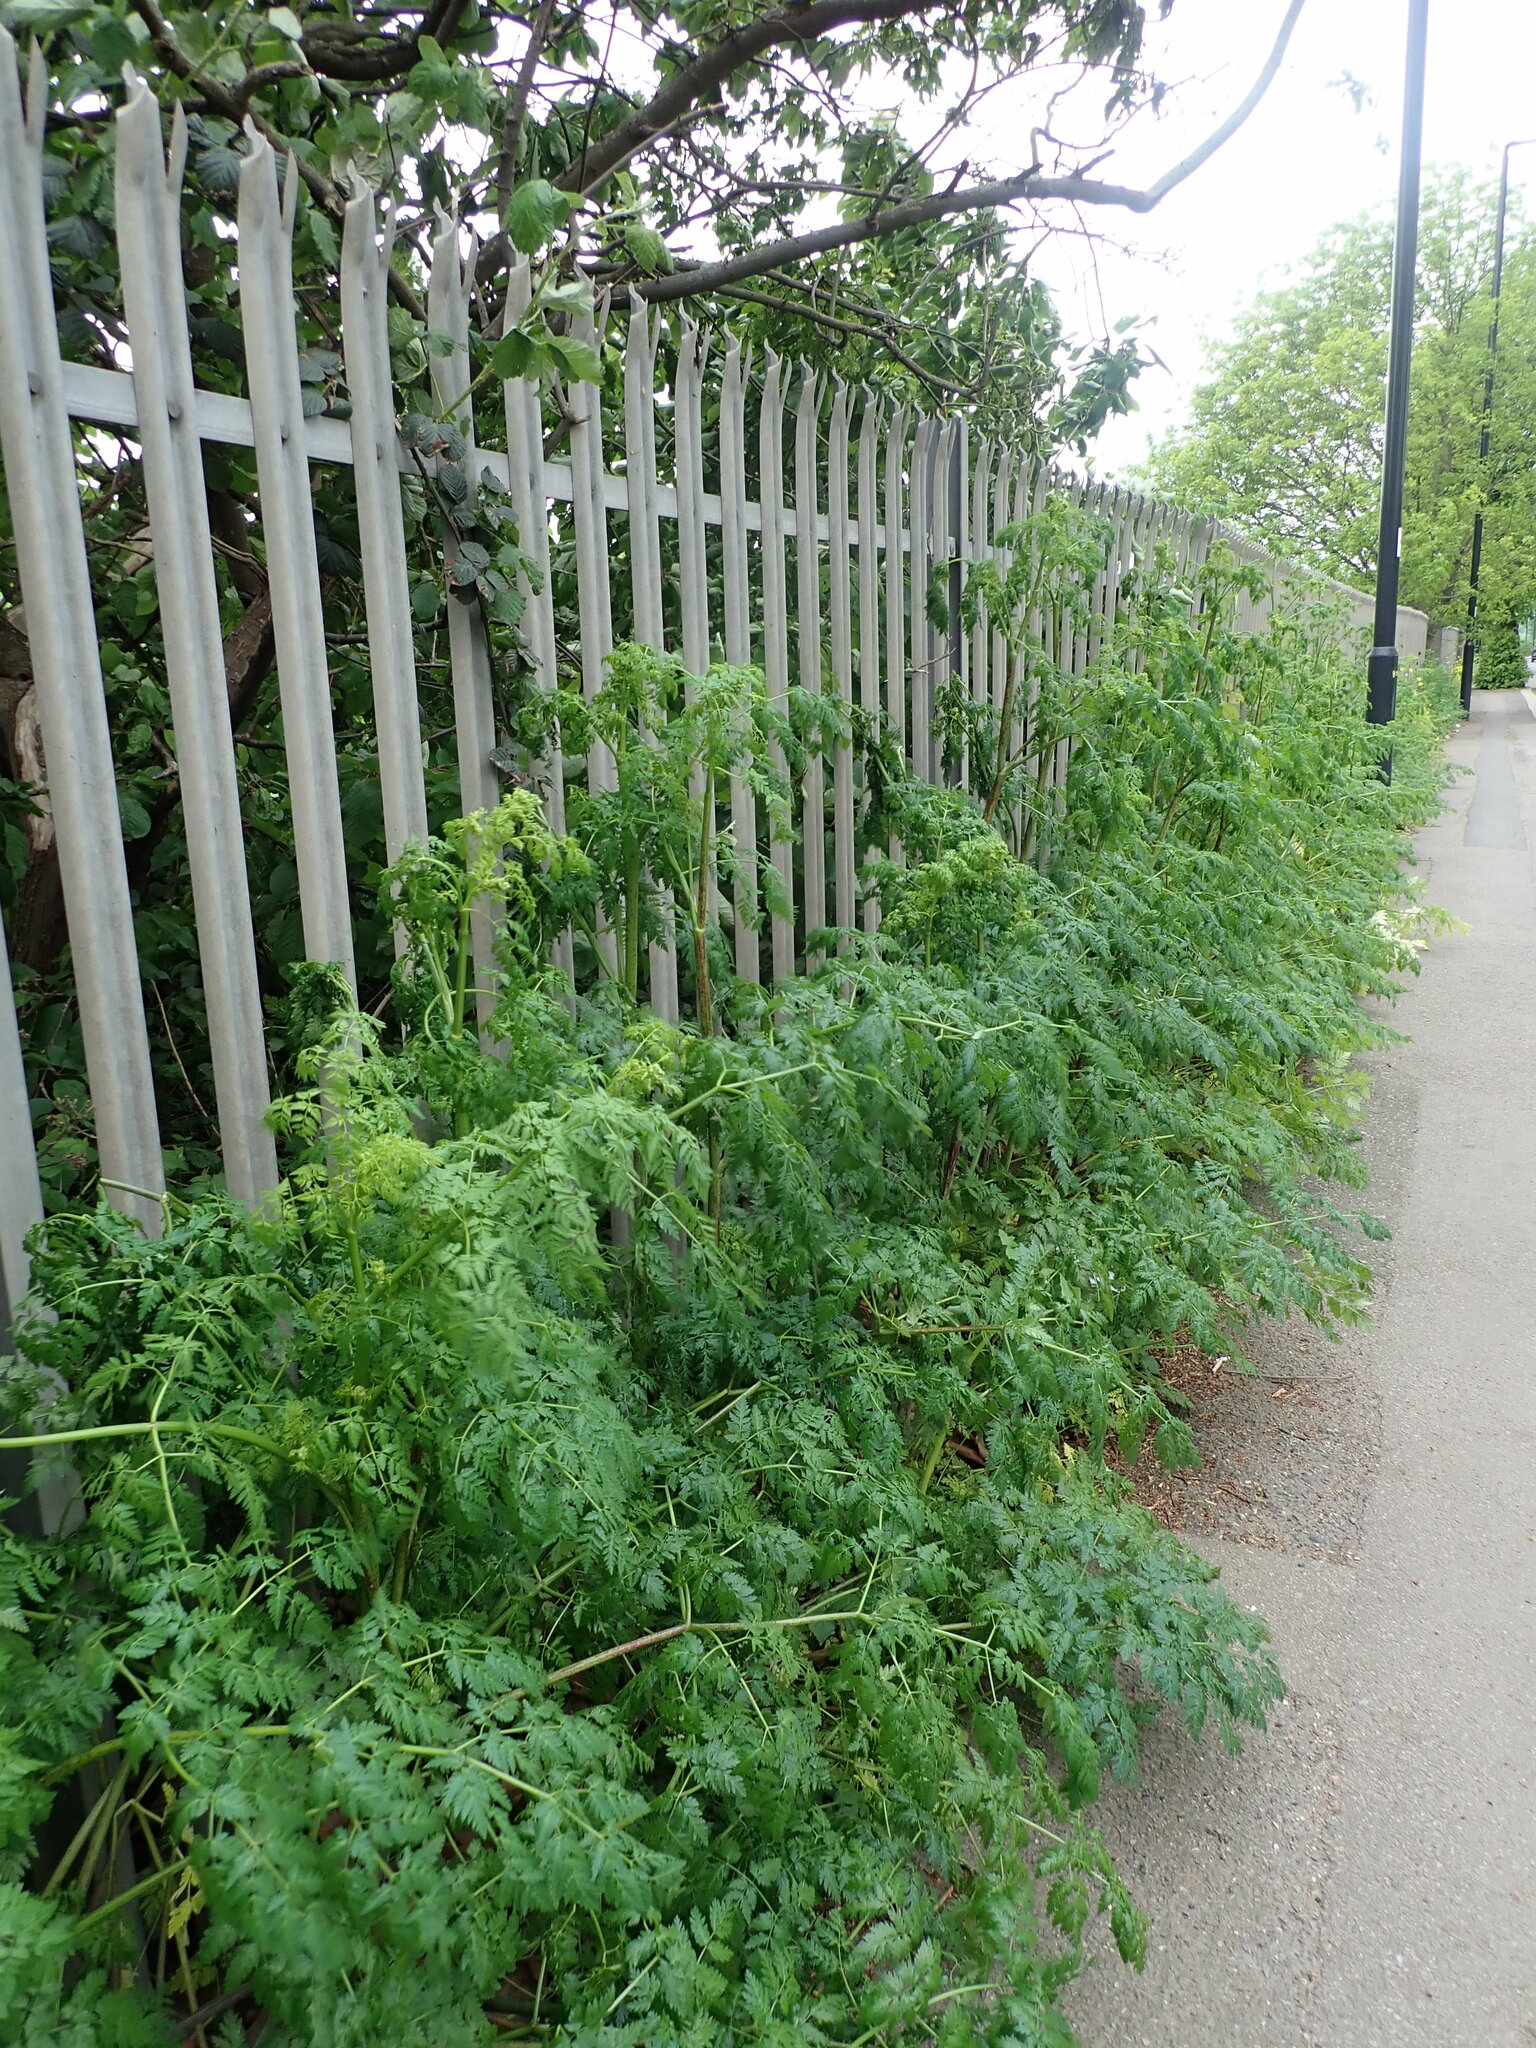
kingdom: Plantae
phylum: Tracheophyta
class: Magnoliopsida
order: Apiales
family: Apiaceae
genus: Conium
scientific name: Conium maculatum
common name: Hemlock
